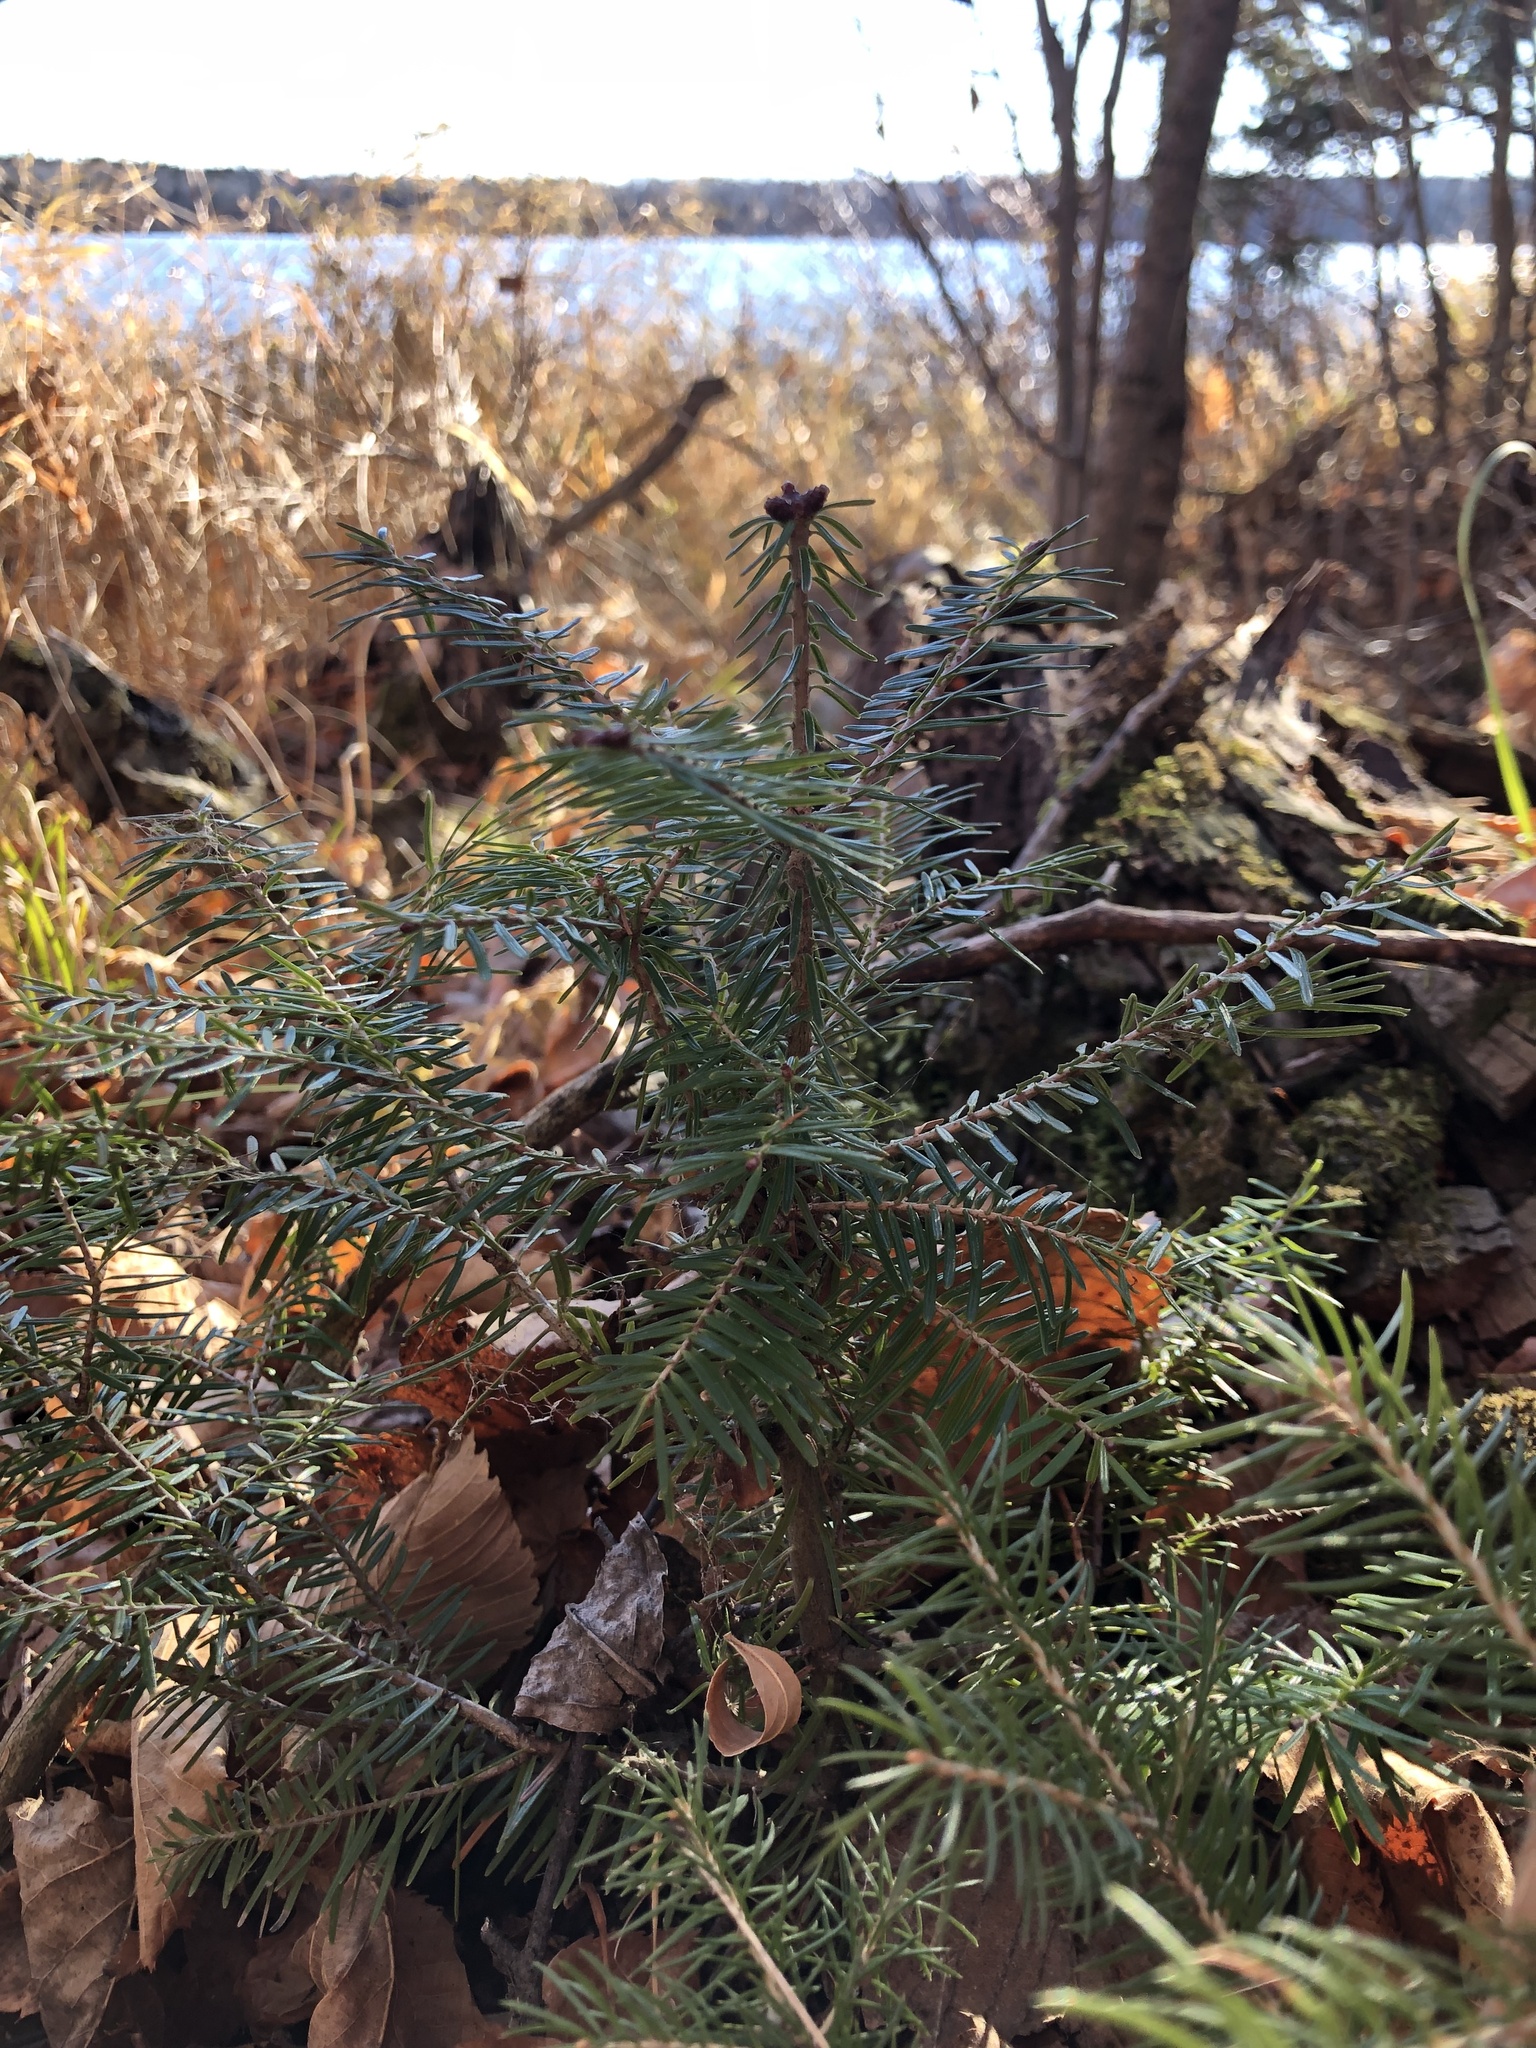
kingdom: Plantae
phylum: Tracheophyta
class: Pinopsida
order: Pinales
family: Pinaceae
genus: Abies
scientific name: Abies balsamea
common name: Balsam fir
